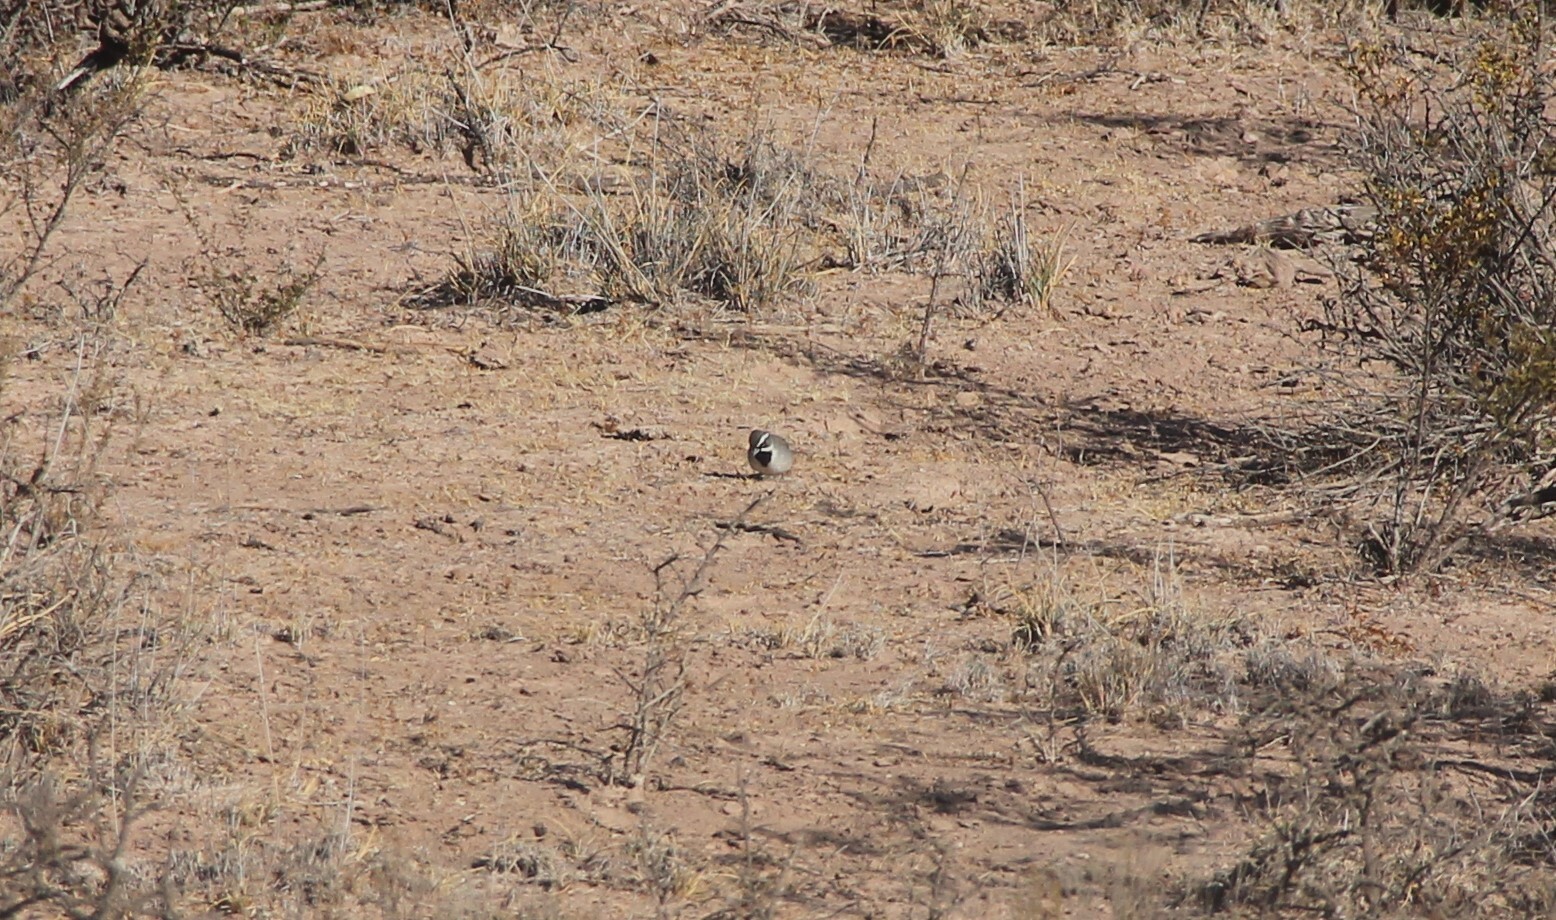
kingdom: Animalia
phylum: Chordata
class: Aves
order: Passeriformes
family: Passerellidae
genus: Amphispiza
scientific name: Amphispiza bilineata
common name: Black-throated sparrow
